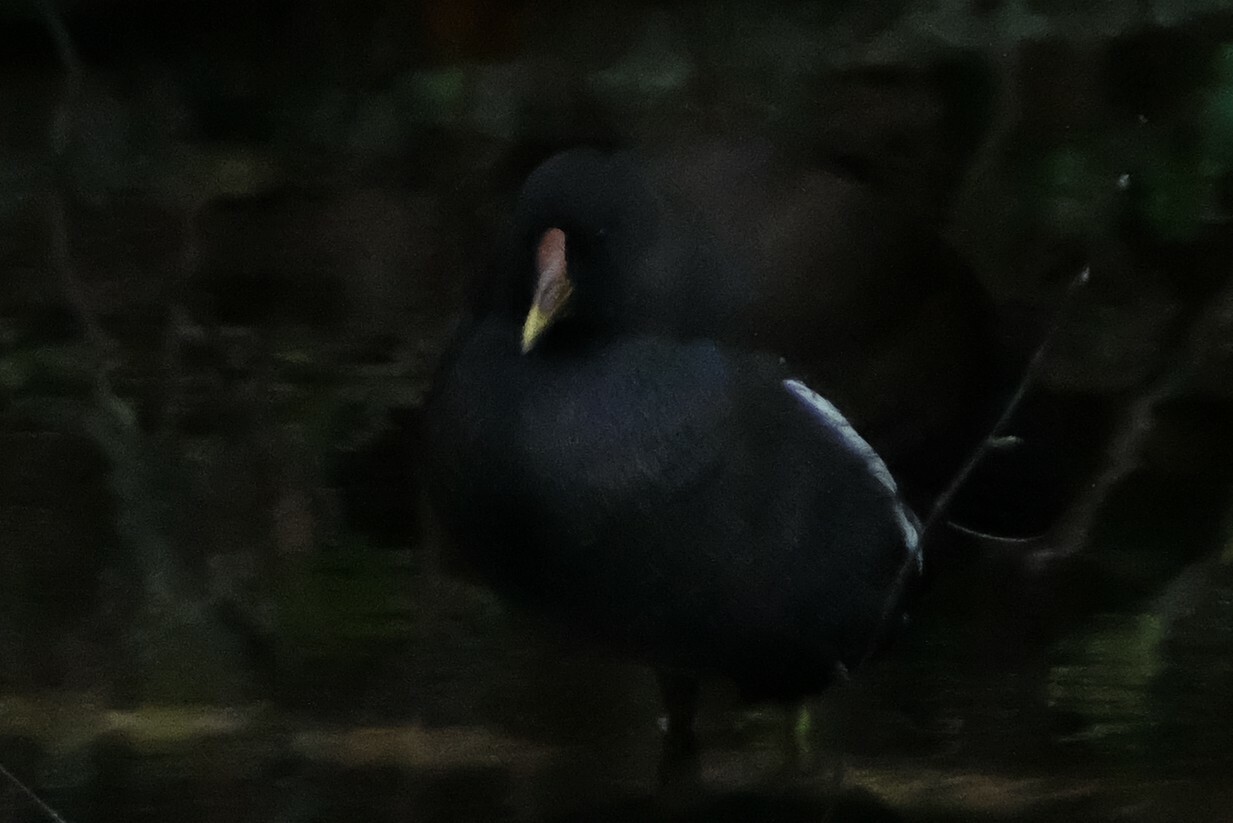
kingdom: Animalia
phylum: Chordata
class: Aves
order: Gruiformes
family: Rallidae
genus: Gallinula
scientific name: Gallinula chloropus
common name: Common moorhen
